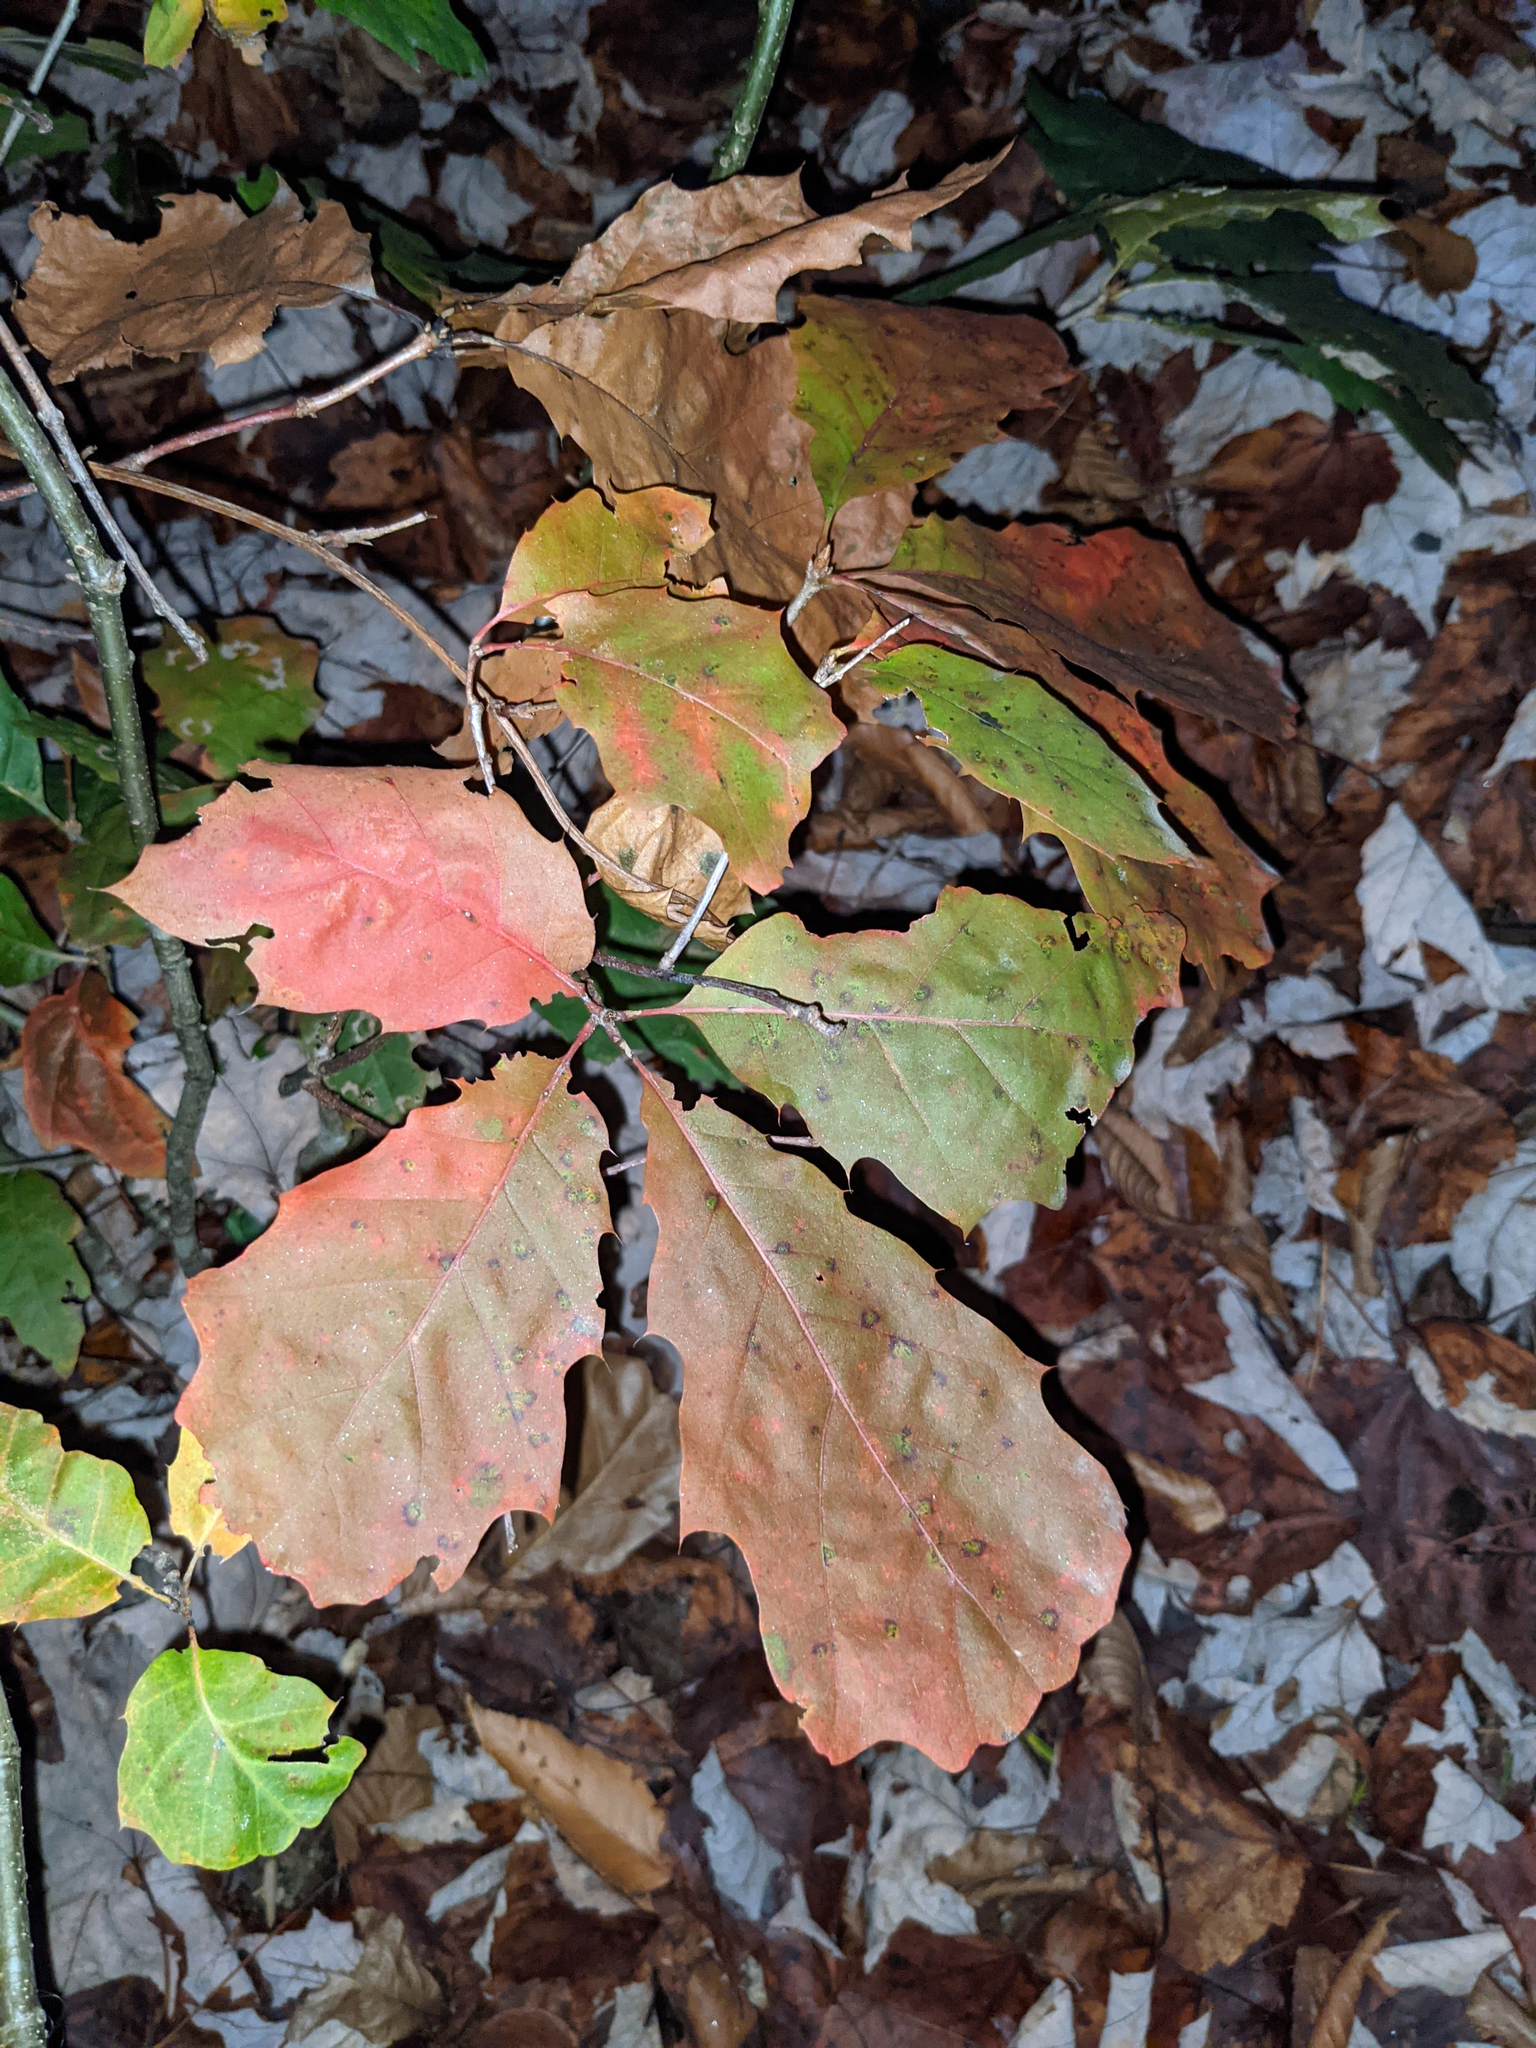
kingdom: Plantae
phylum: Tracheophyta
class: Magnoliopsida
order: Fagales
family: Fagaceae
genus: Quercus
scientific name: Quercus rubra
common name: Red oak
